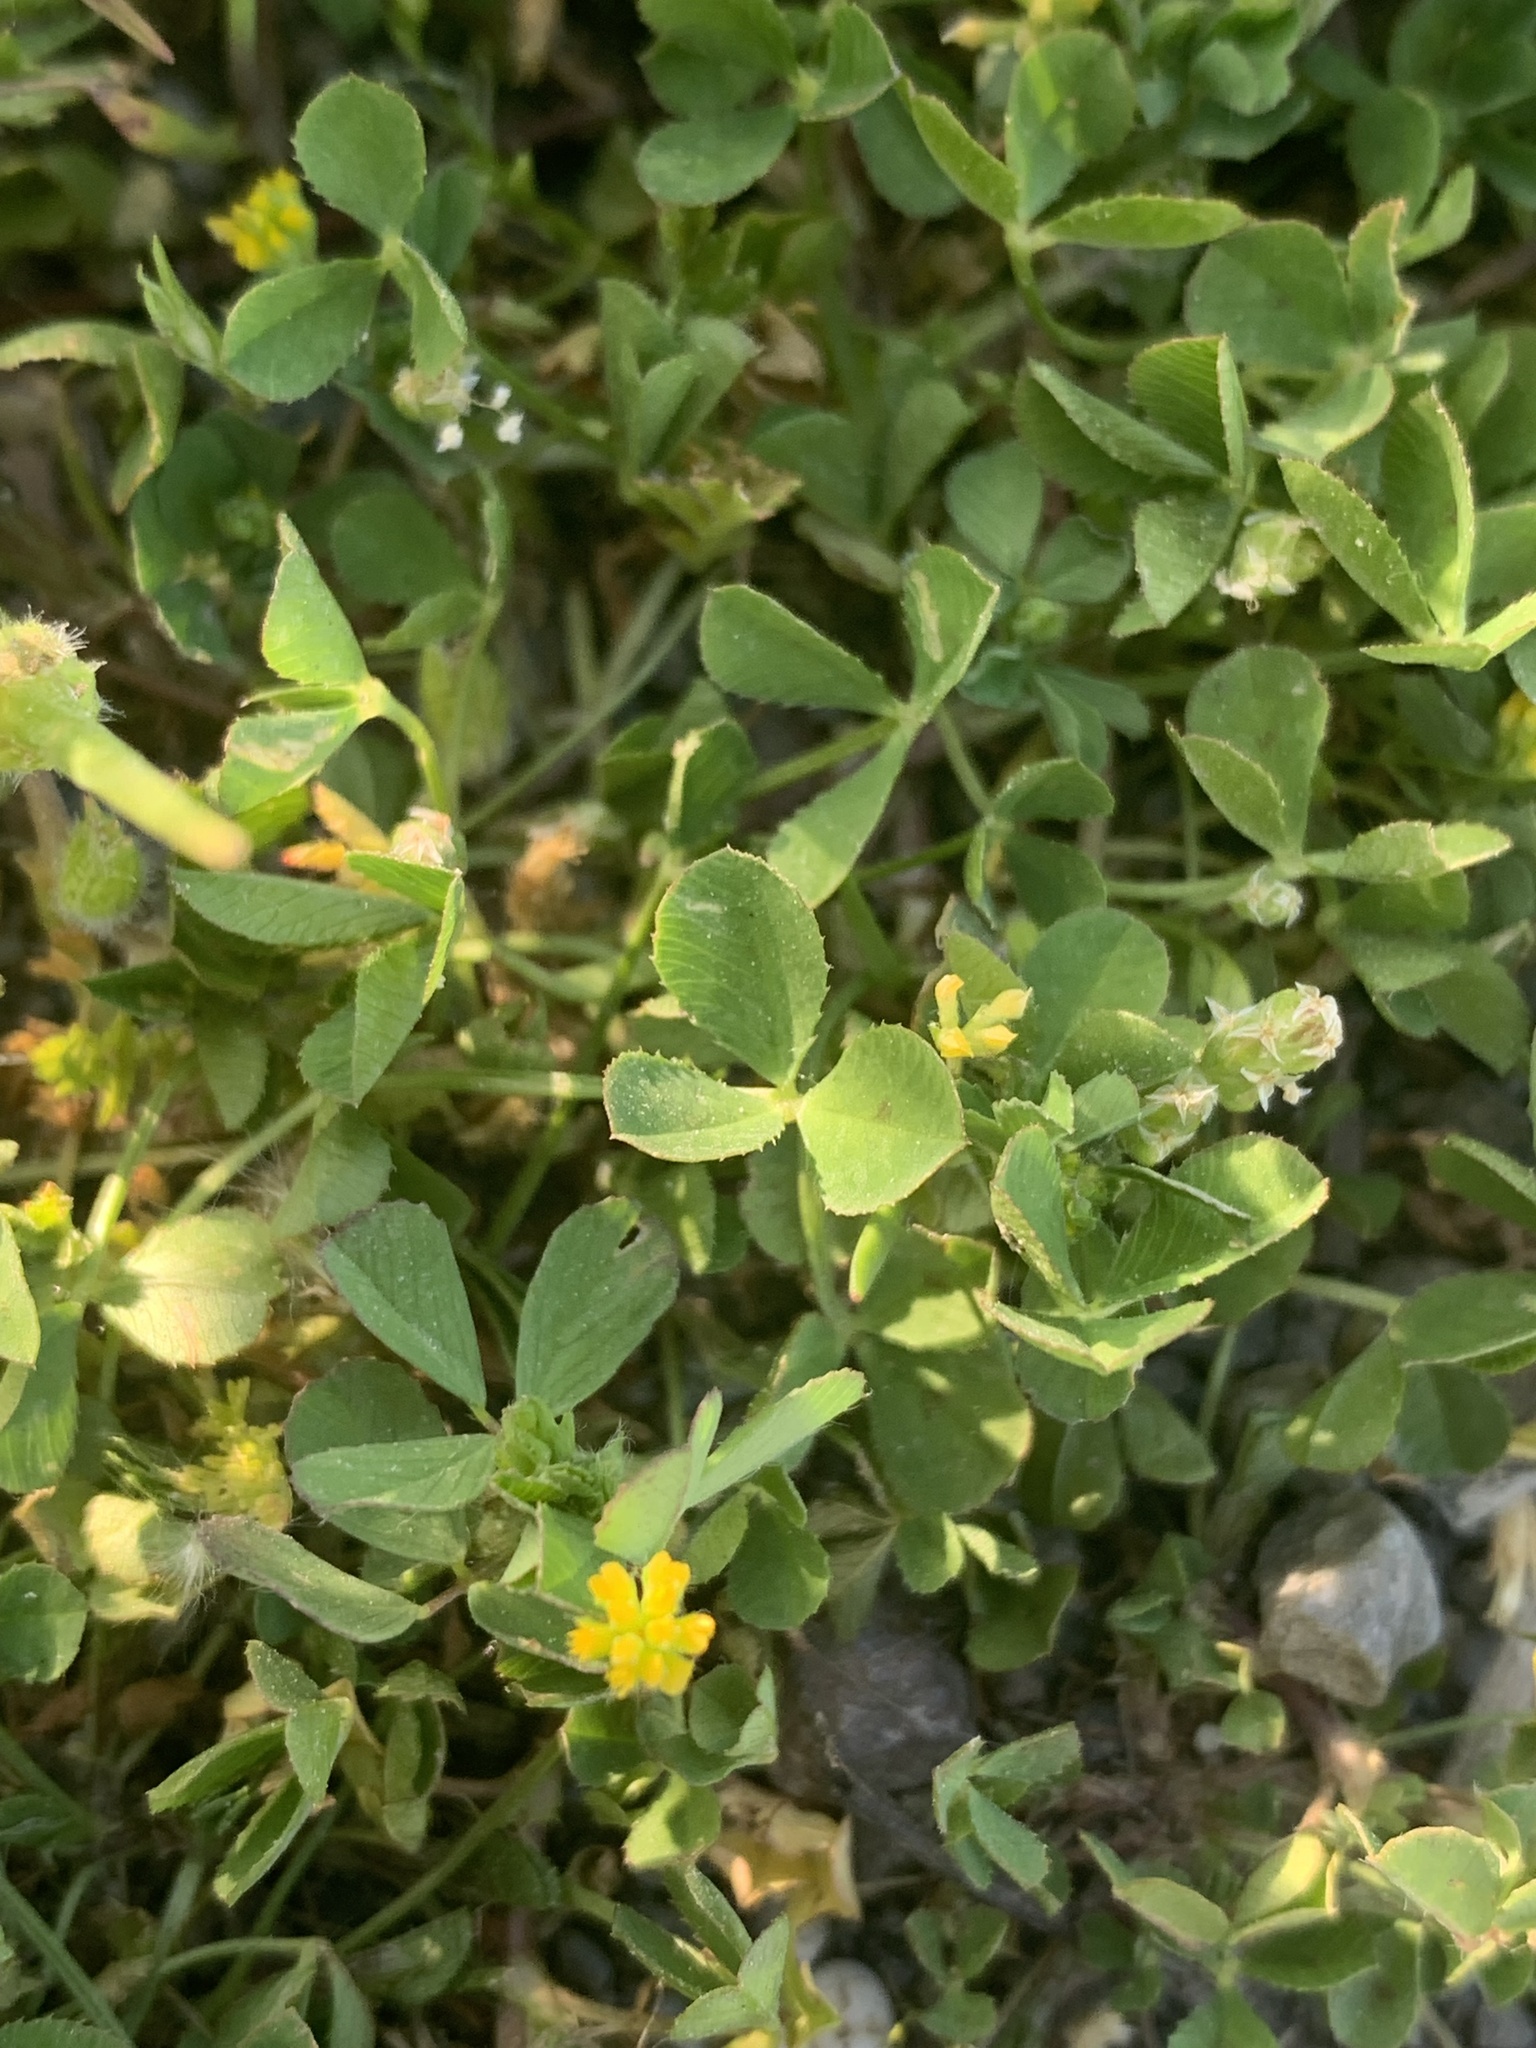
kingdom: Plantae
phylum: Tracheophyta
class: Magnoliopsida
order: Fabales
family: Fabaceae
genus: Trifolium
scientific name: Trifolium dubium
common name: Suckling clover
